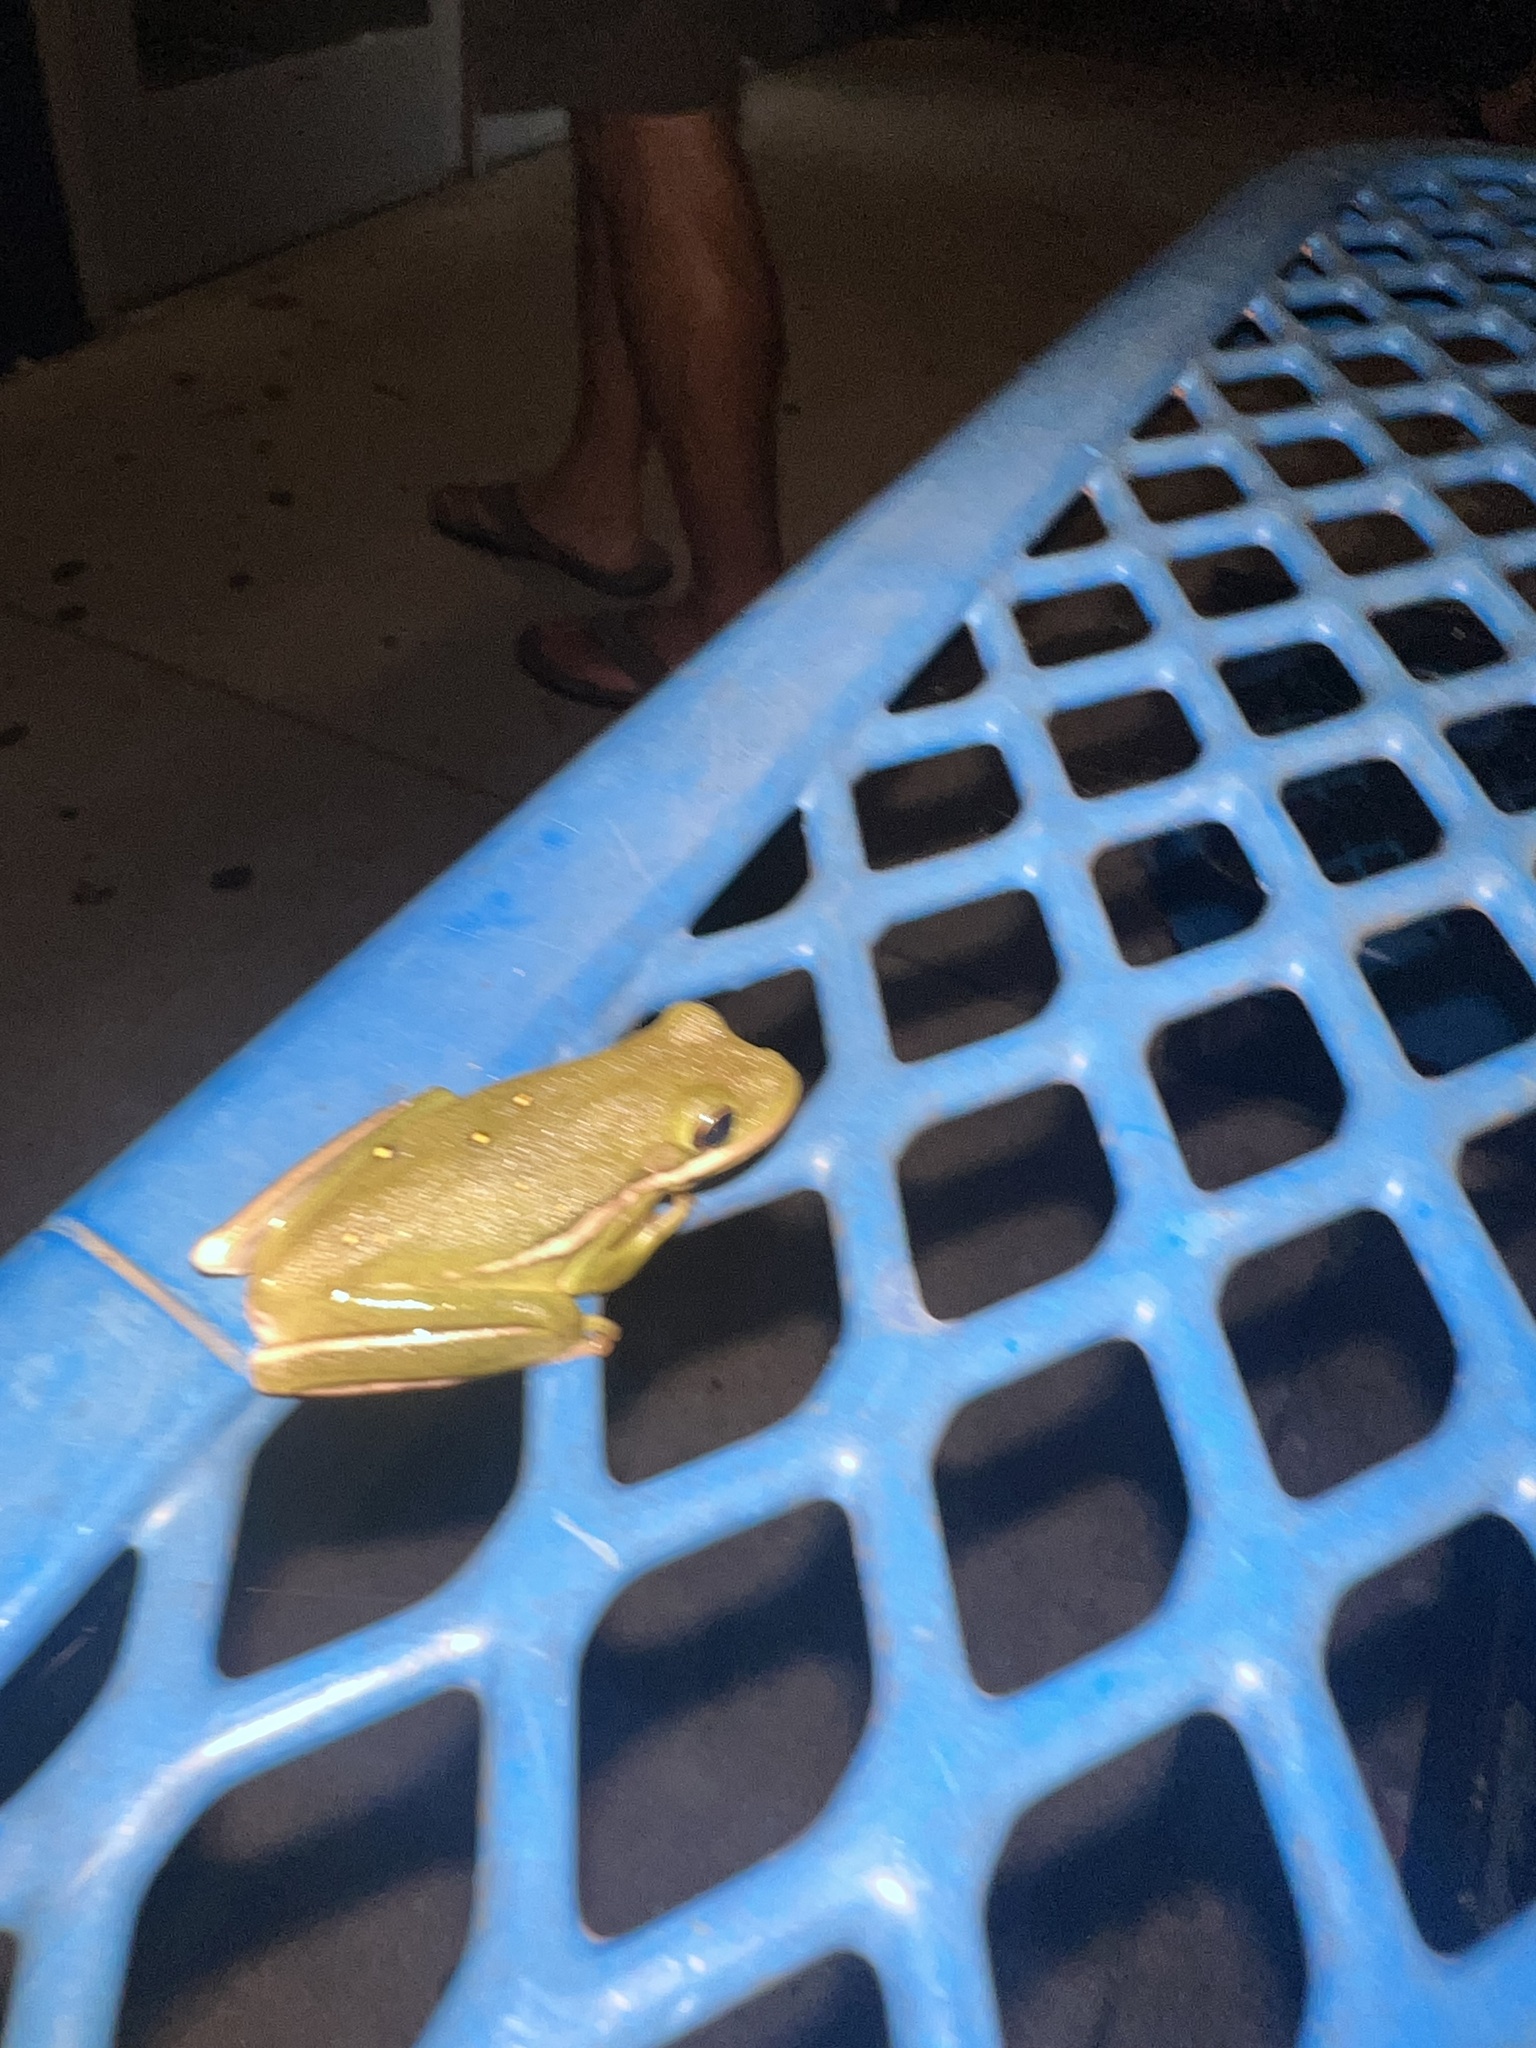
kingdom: Animalia
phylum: Chordata
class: Amphibia
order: Anura
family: Hylidae
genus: Dryophytes
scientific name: Dryophytes cinereus
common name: Green treefrog
